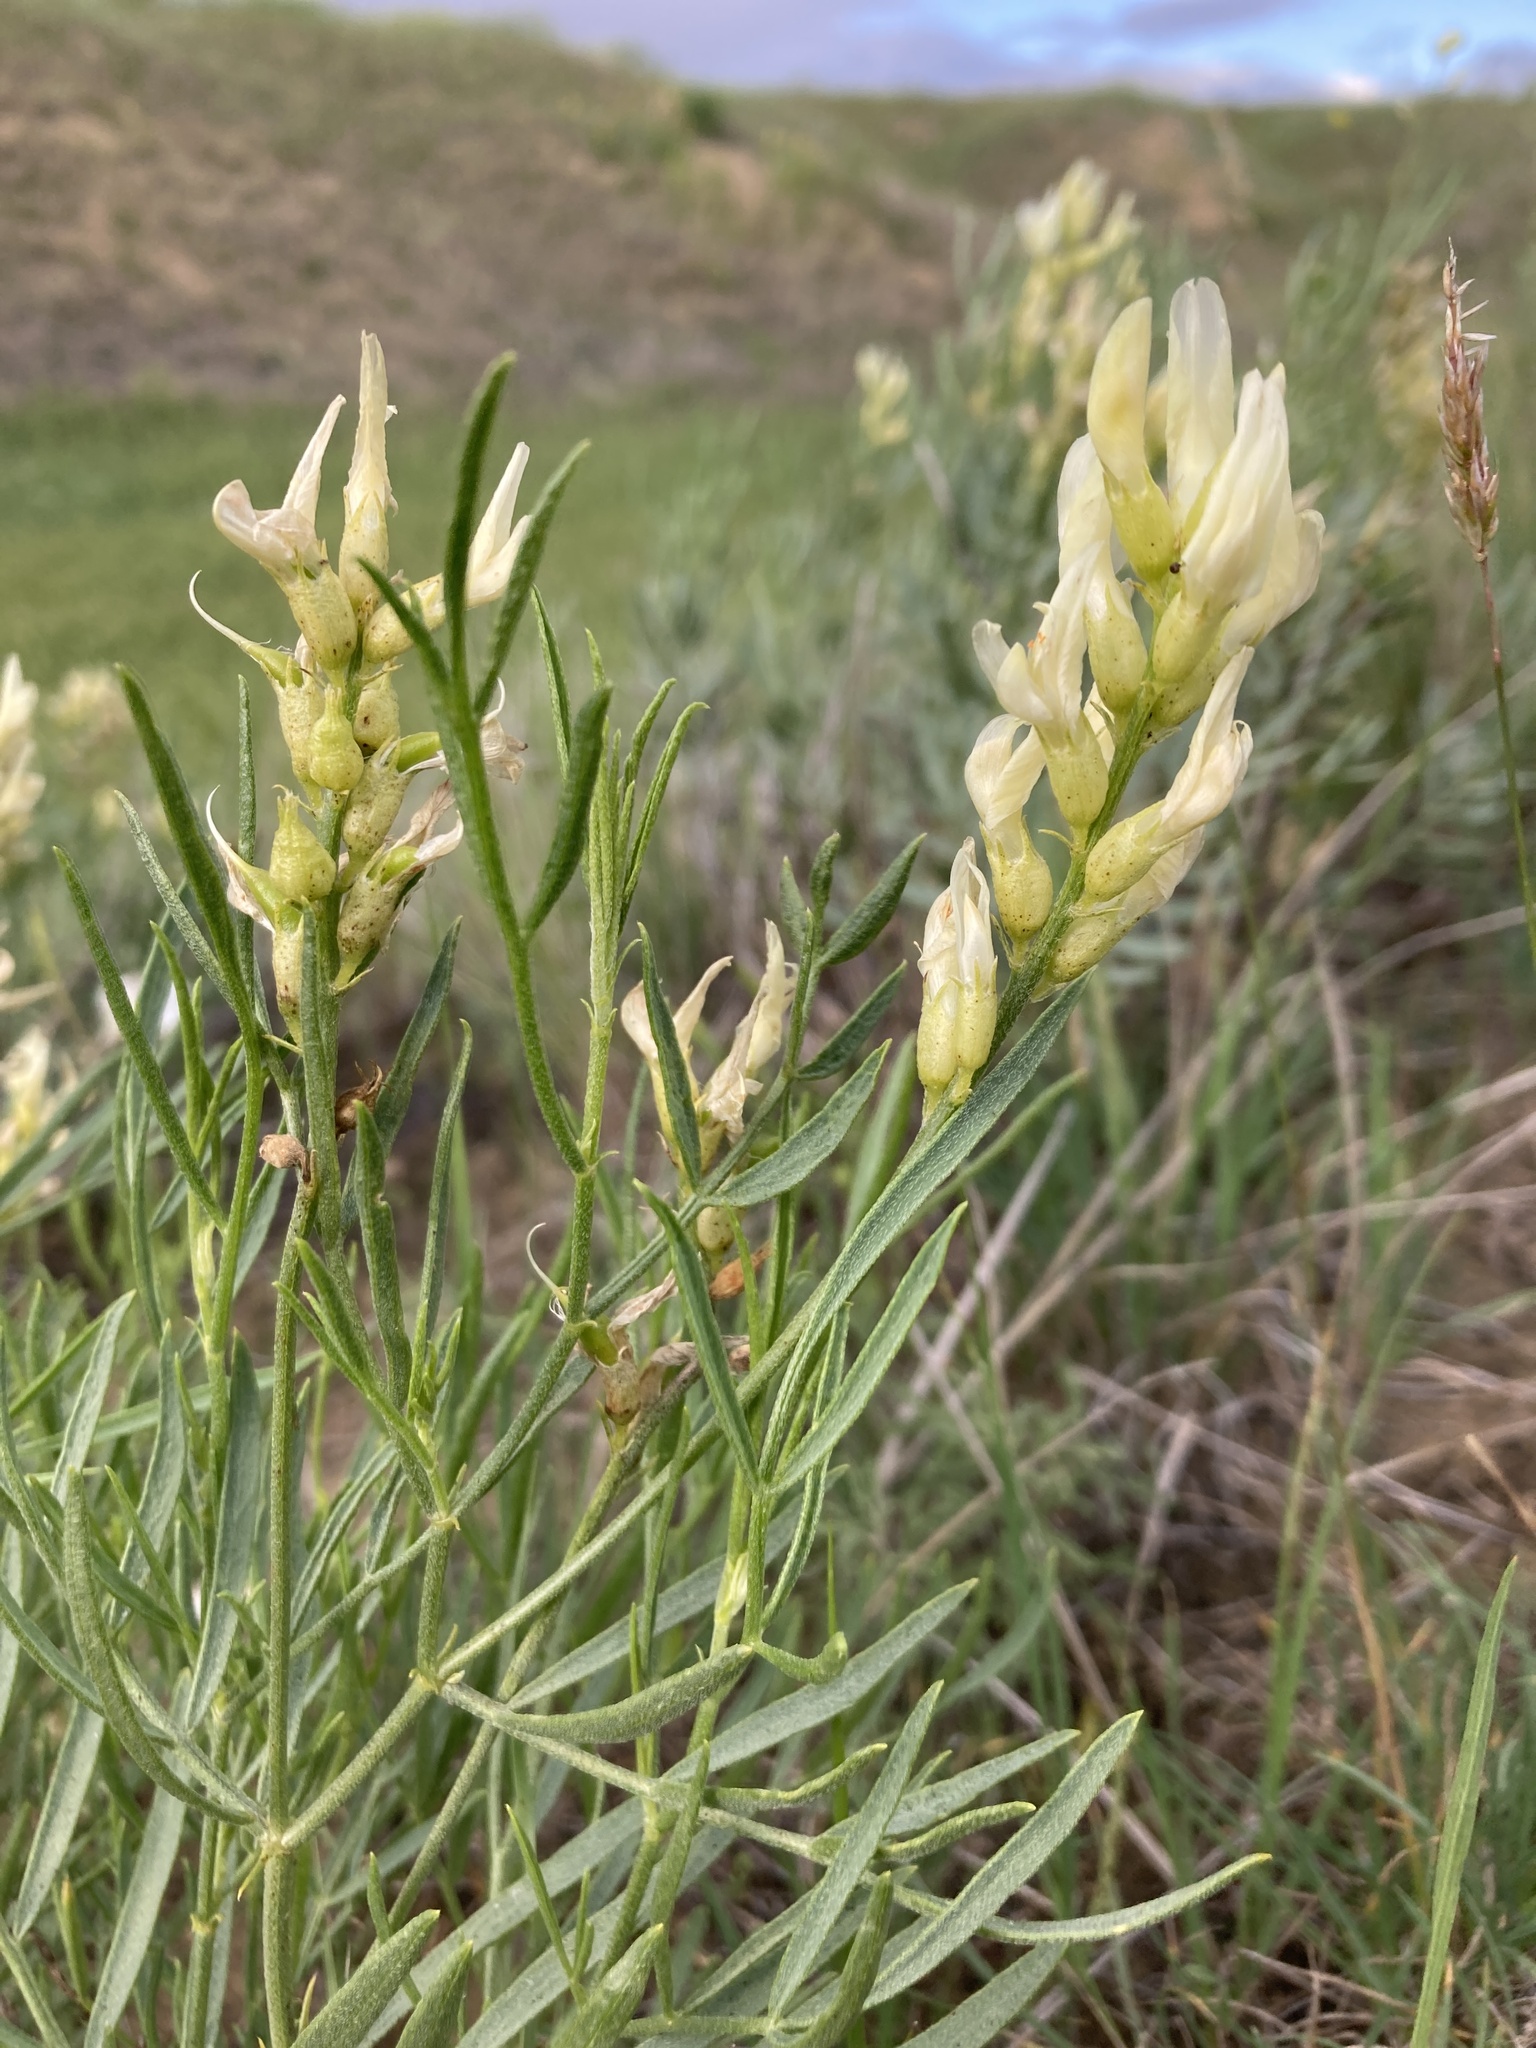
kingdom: Plantae
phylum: Tracheophyta
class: Magnoliopsida
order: Fabales
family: Fabaceae
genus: Astragalus
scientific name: Astragalus grayi
